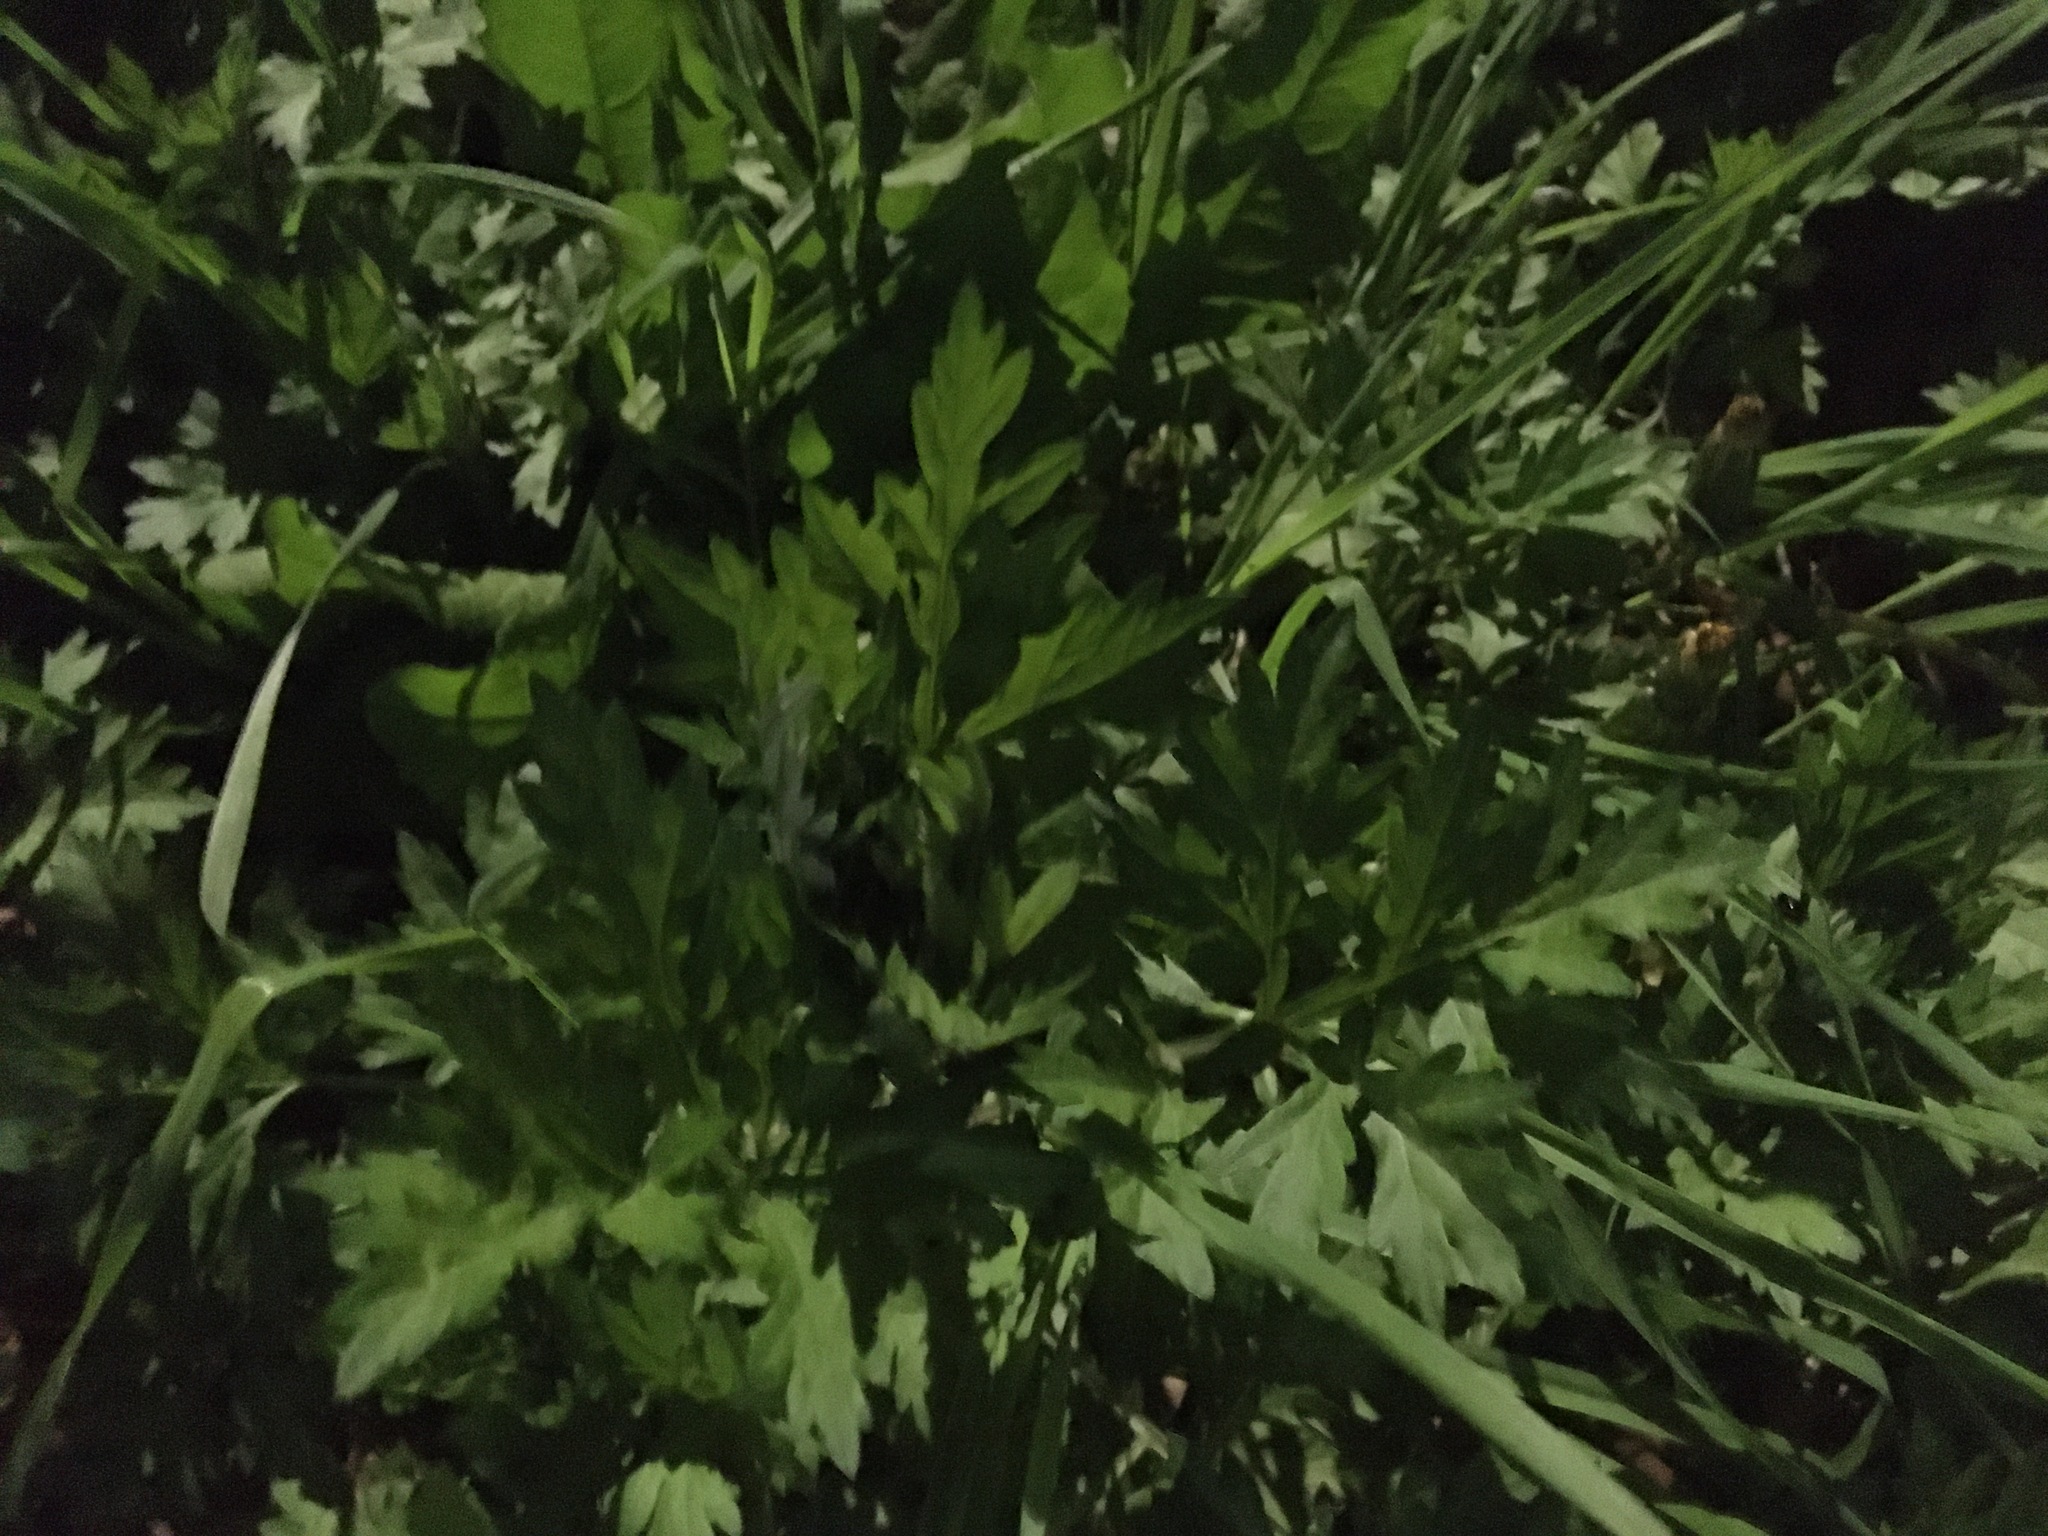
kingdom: Plantae
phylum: Tracheophyta
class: Magnoliopsida
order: Asterales
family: Asteraceae
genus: Artemisia
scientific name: Artemisia vulgaris
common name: Mugwort
